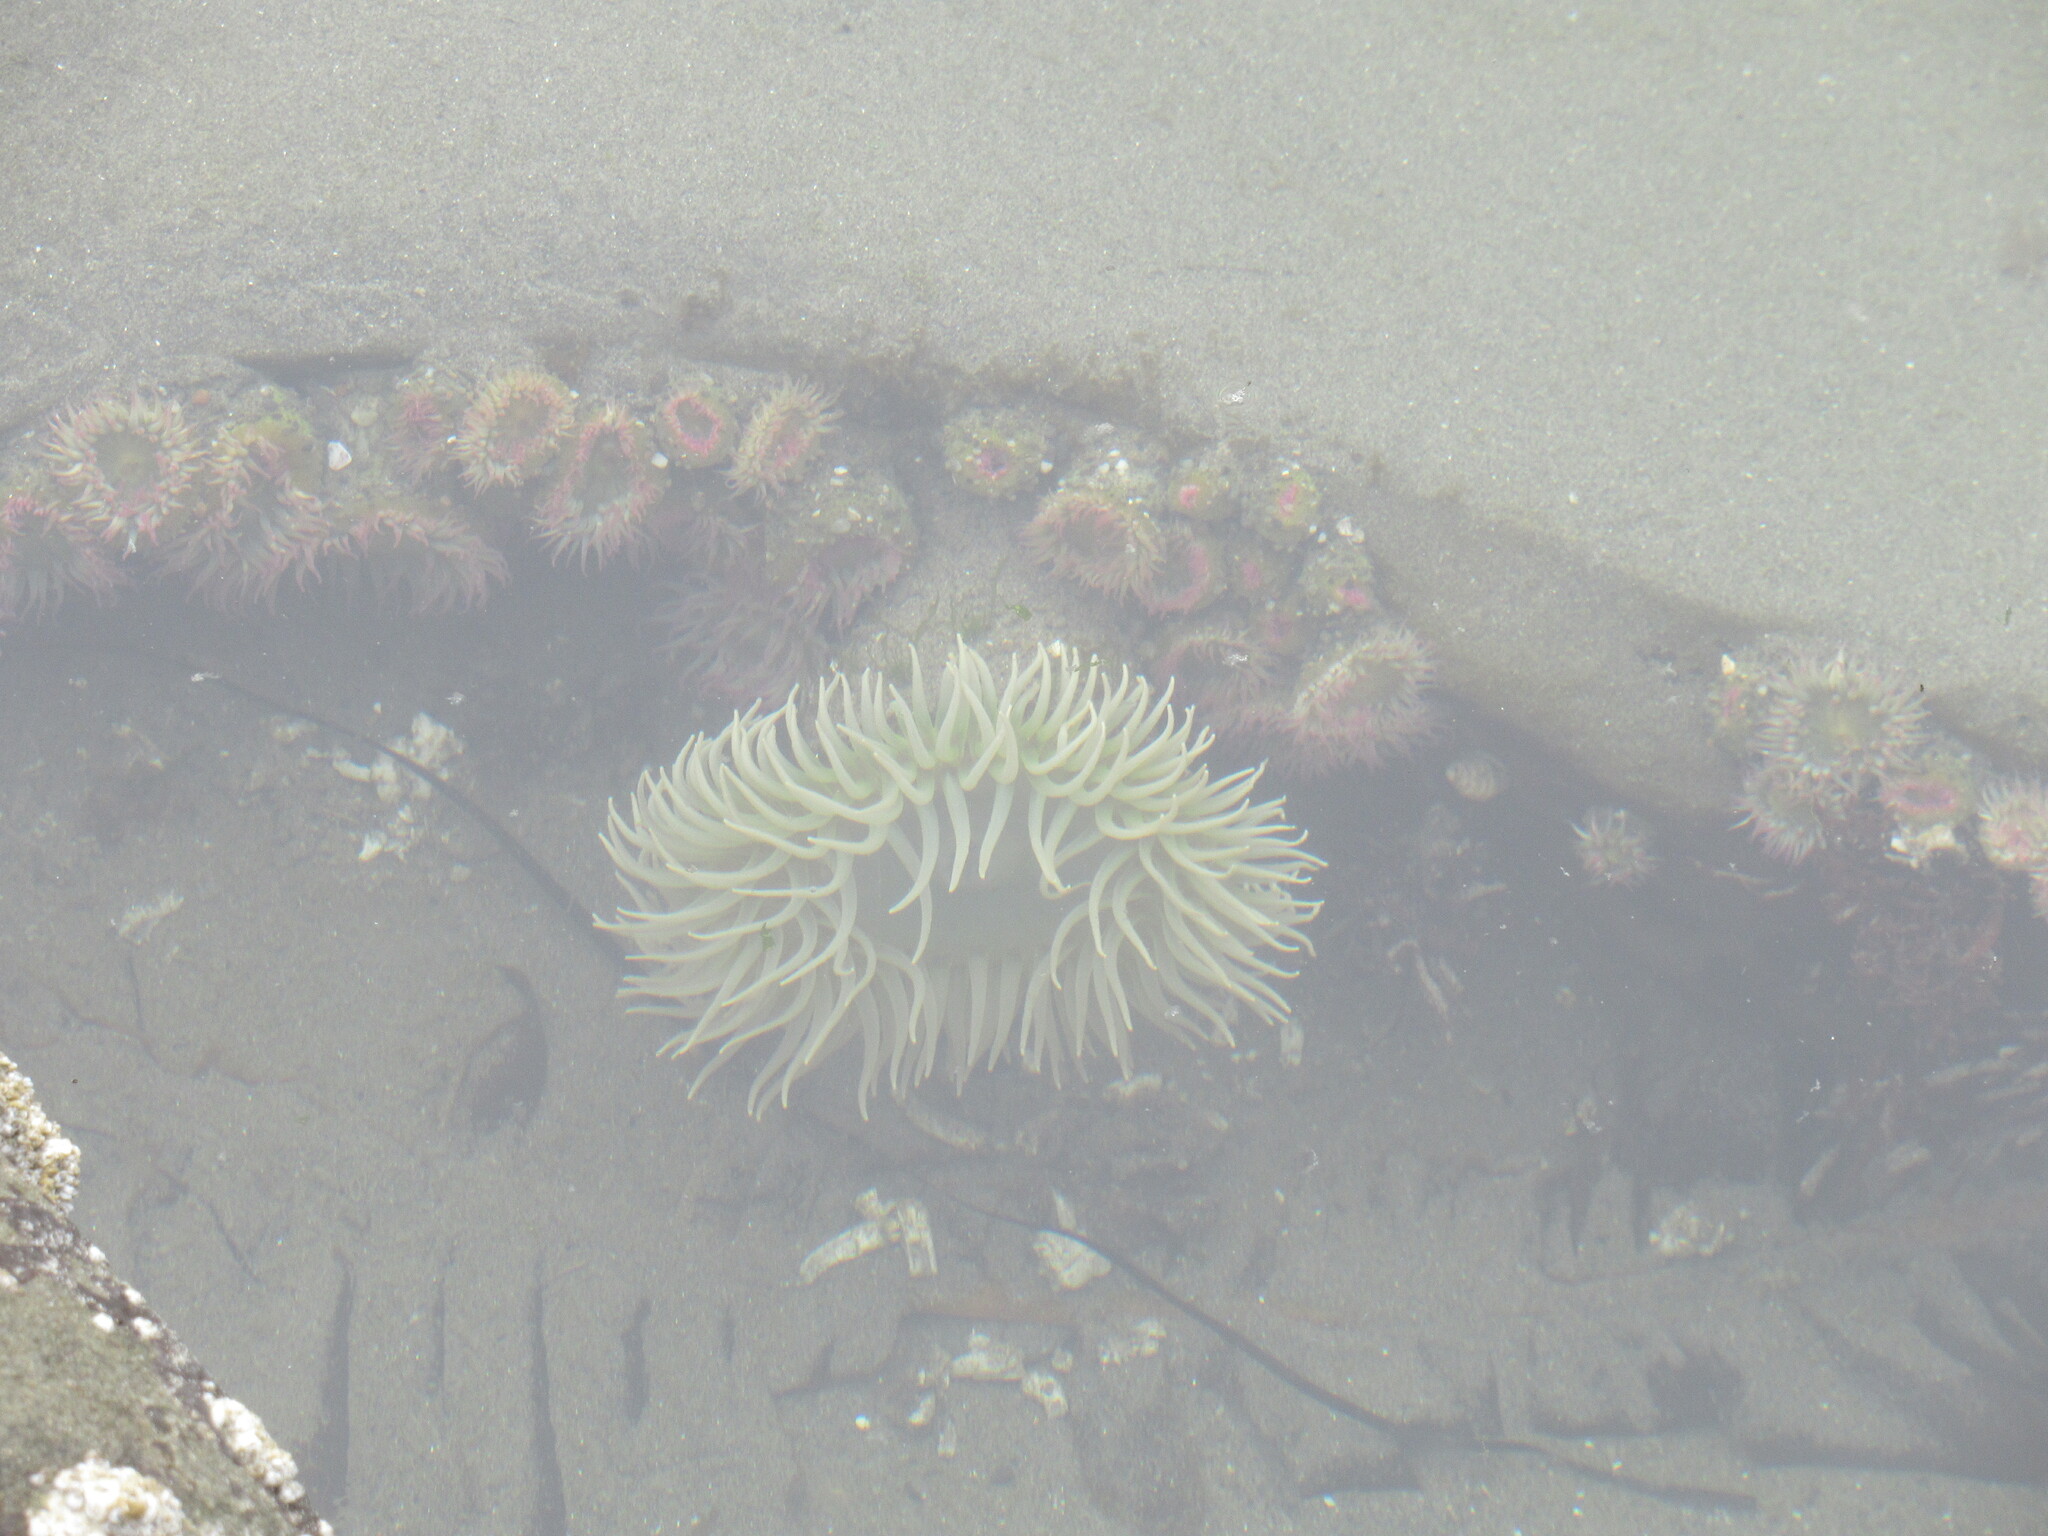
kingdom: Animalia
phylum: Cnidaria
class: Anthozoa
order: Actiniaria
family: Actiniidae
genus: Anthopleura
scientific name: Anthopleura xanthogrammica
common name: Giant green anemone
